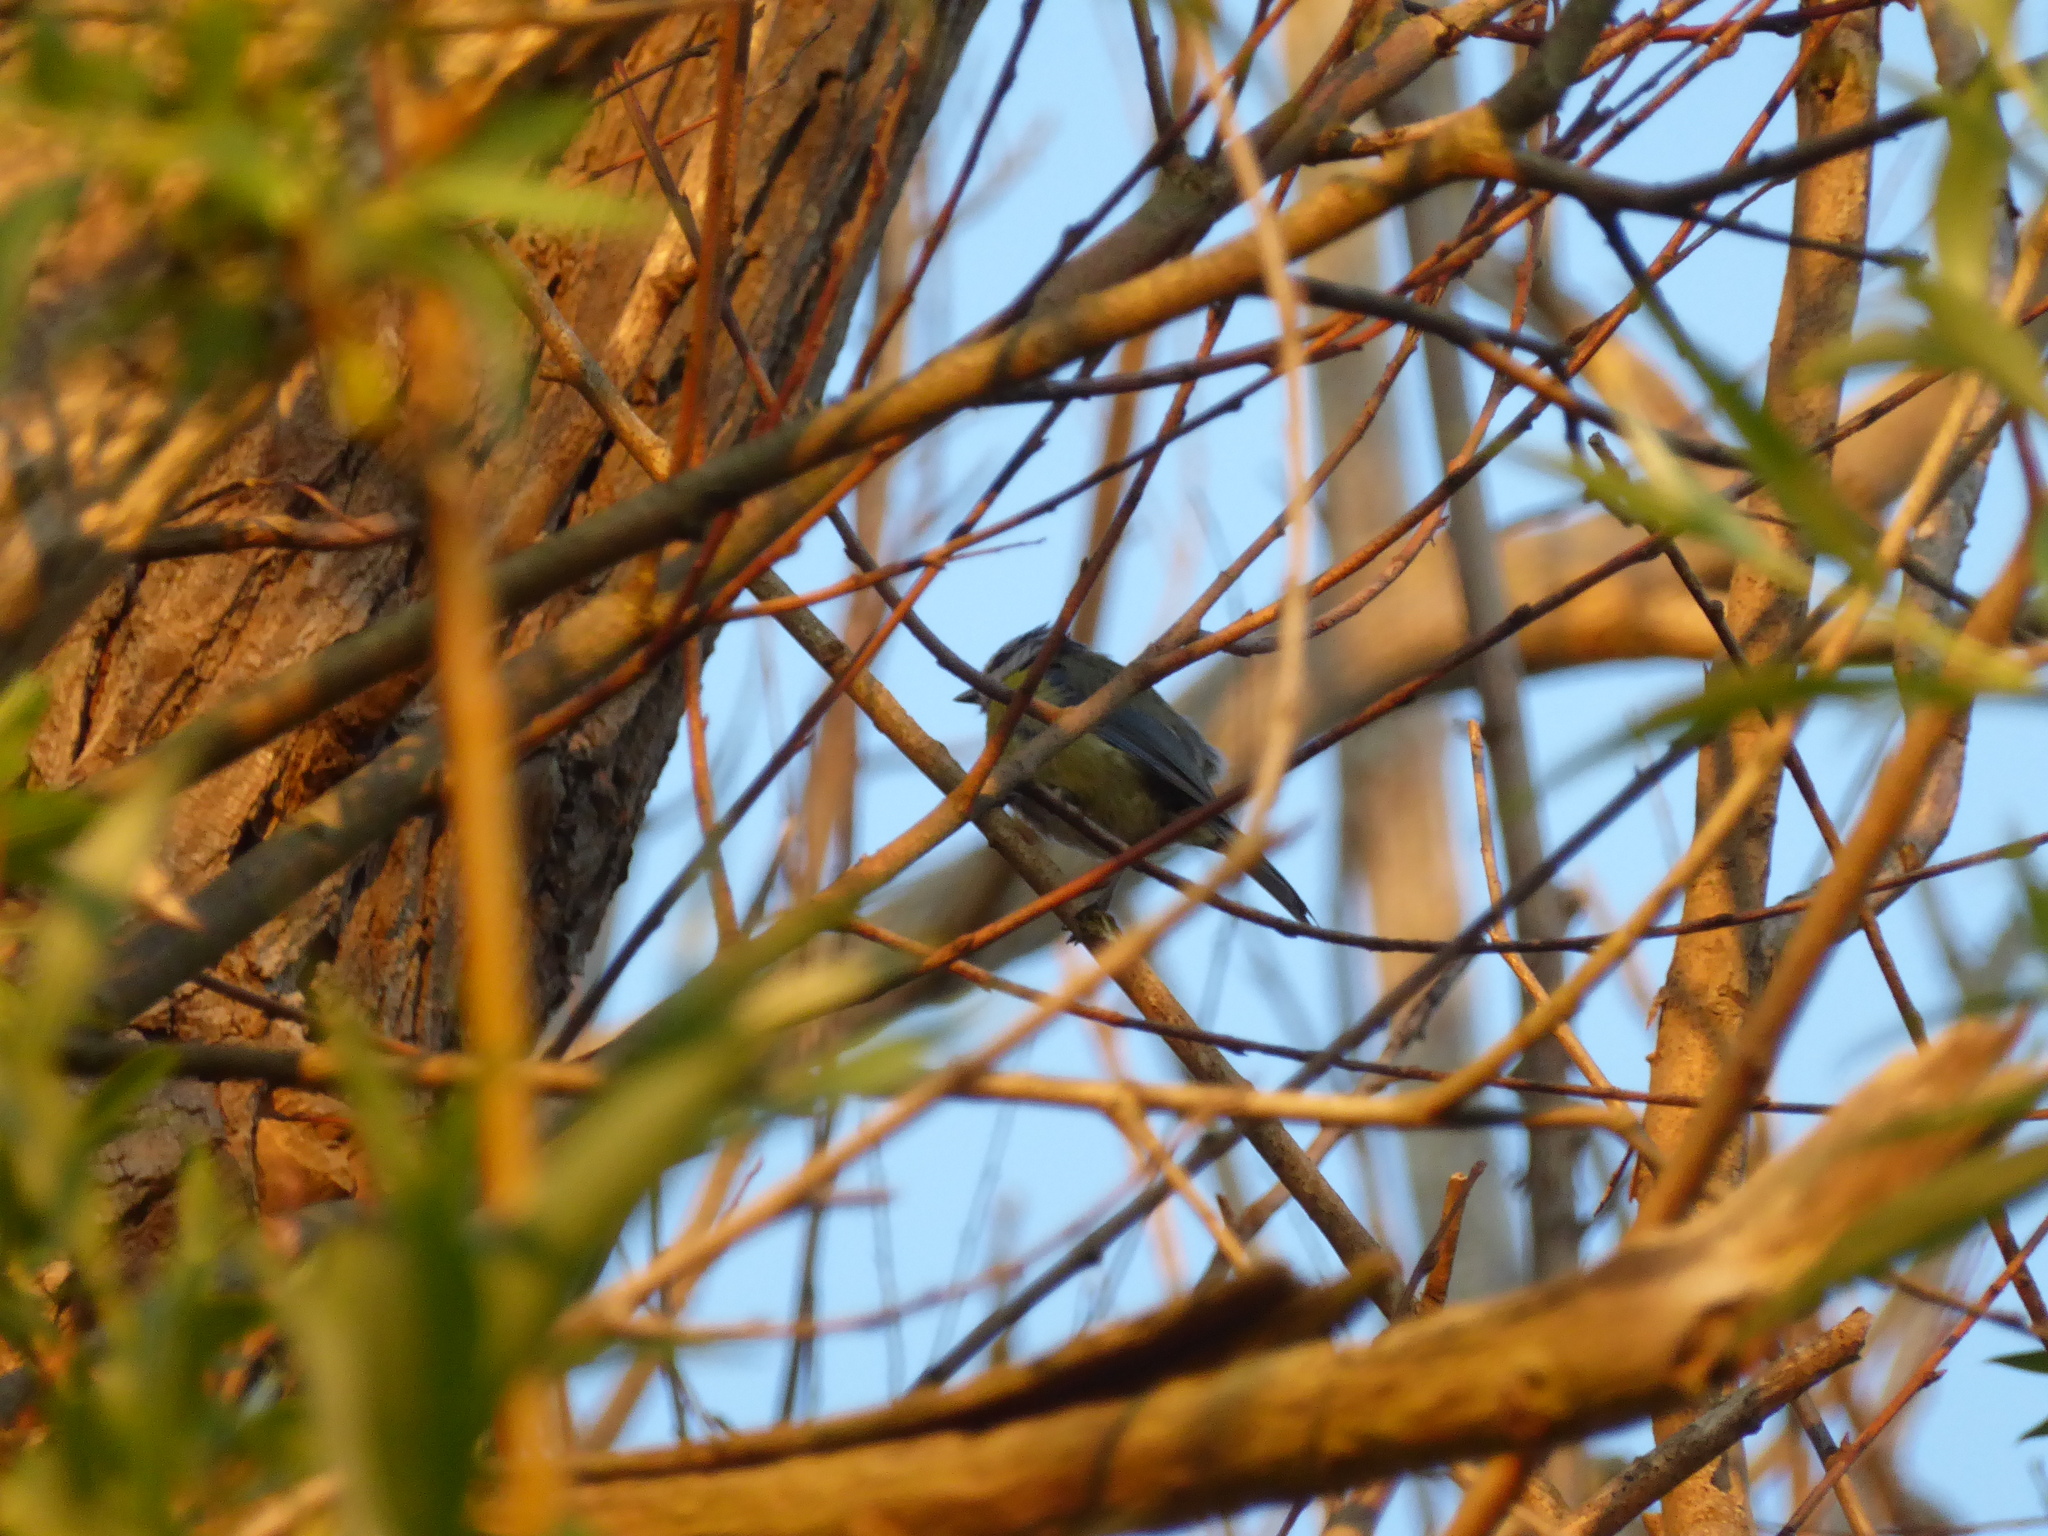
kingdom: Animalia
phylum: Chordata
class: Aves
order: Passeriformes
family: Paridae
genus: Cyanistes
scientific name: Cyanistes caeruleus
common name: Eurasian blue tit
